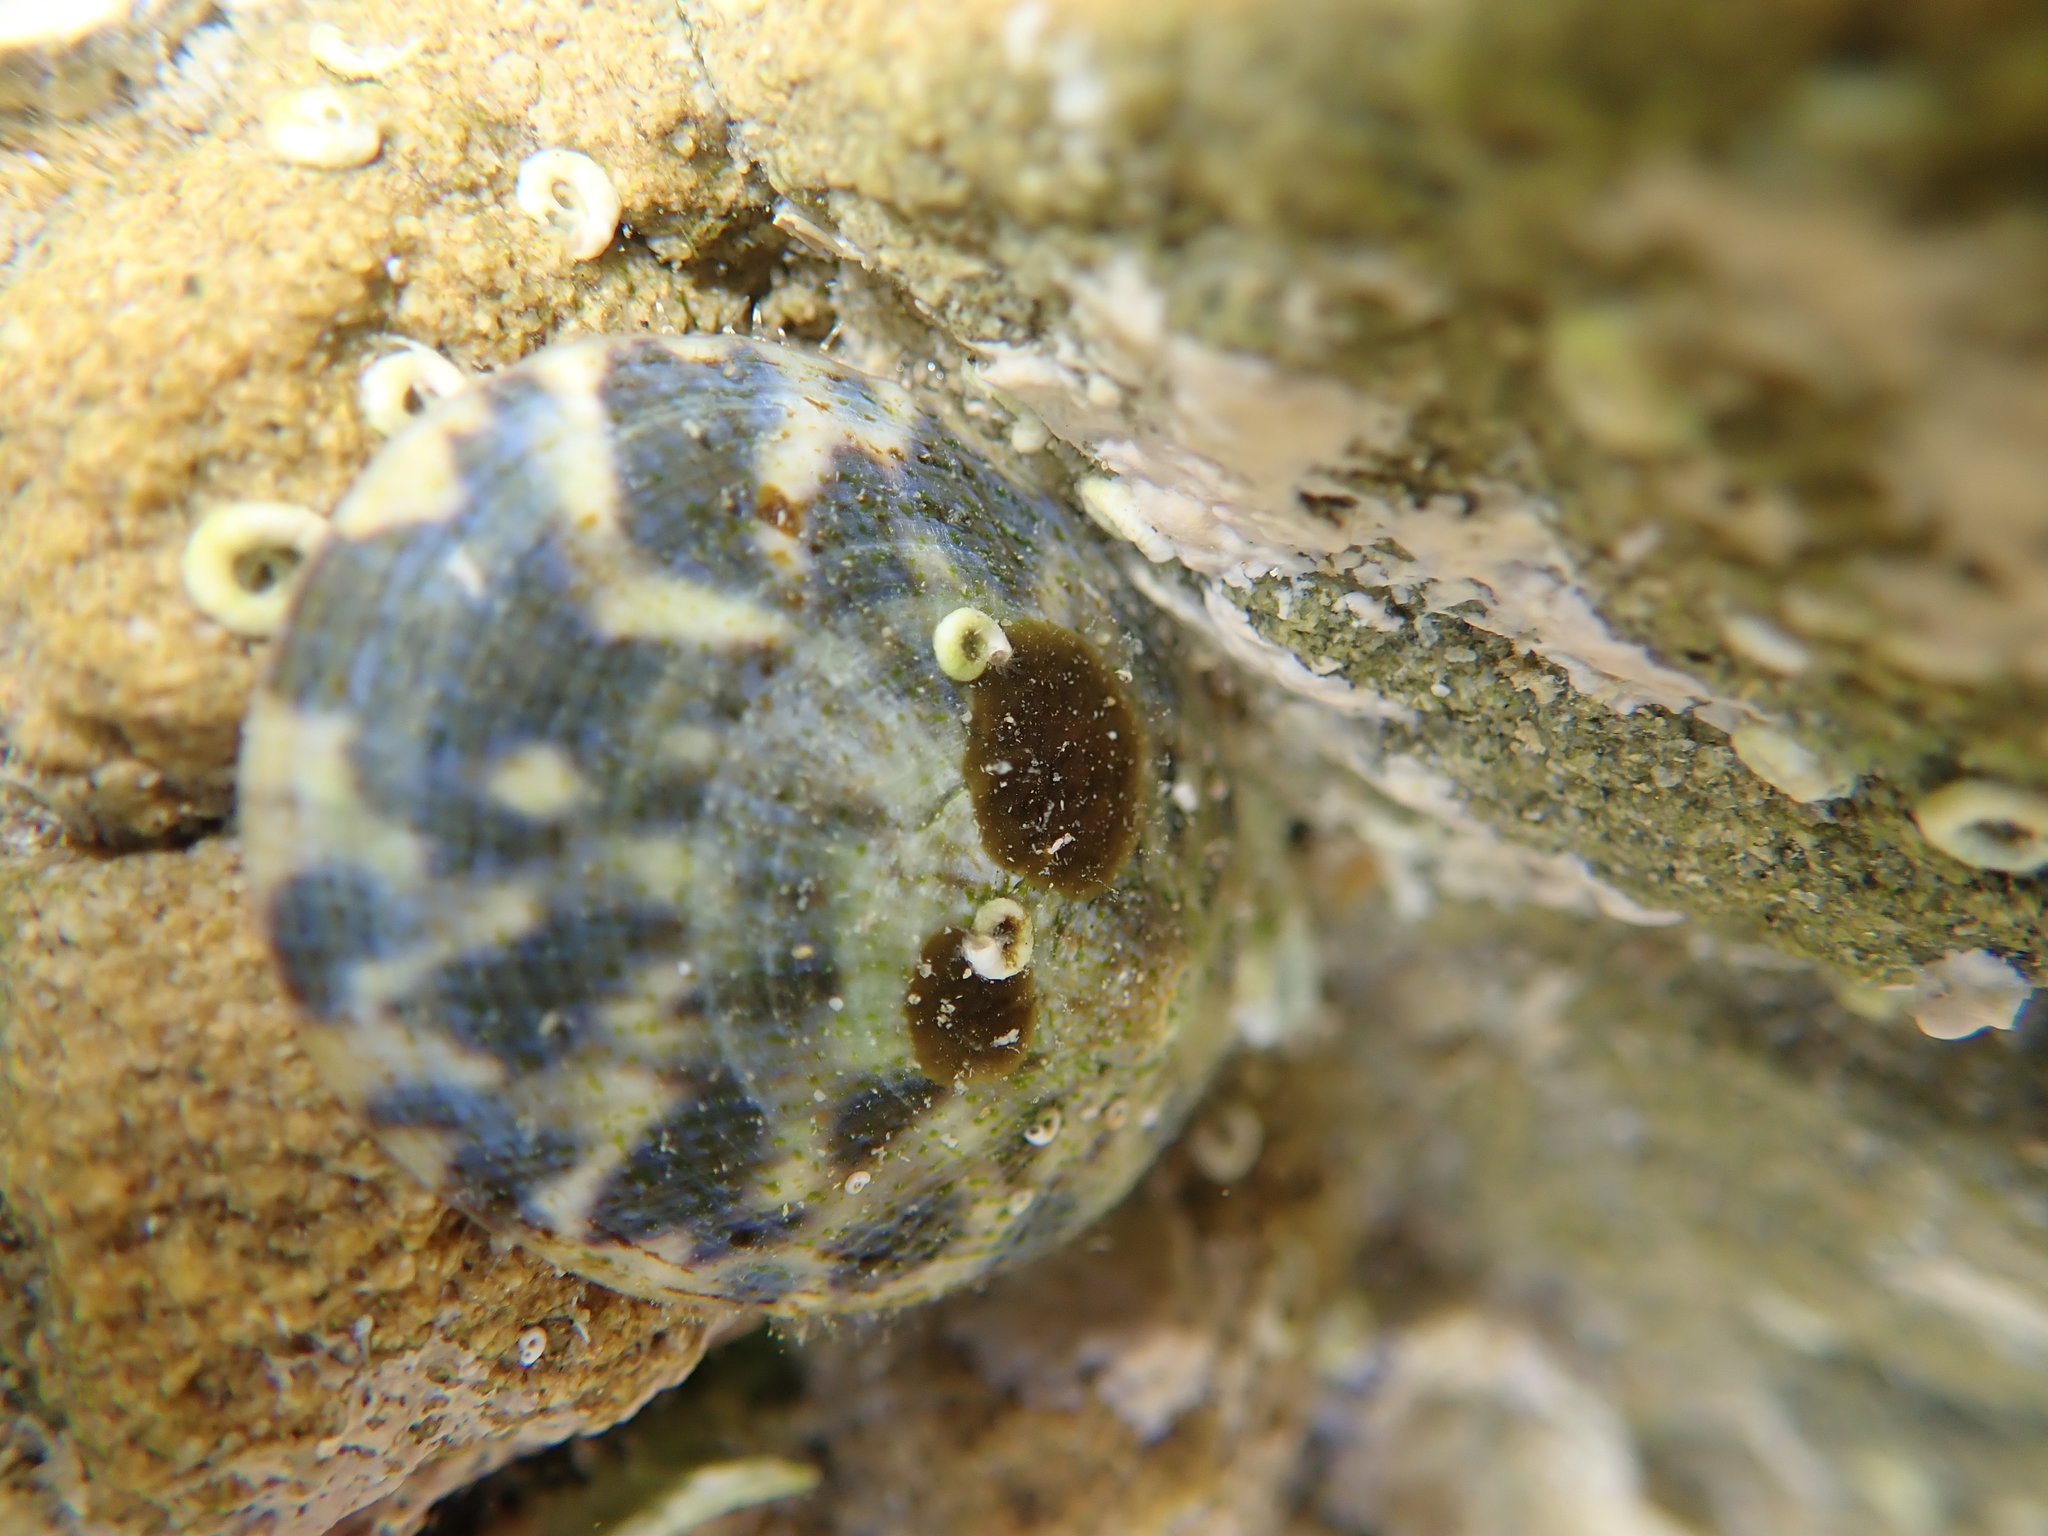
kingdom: Animalia
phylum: Mollusca
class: Gastropoda
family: Nacellidae
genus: Cellana
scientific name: Cellana radians
